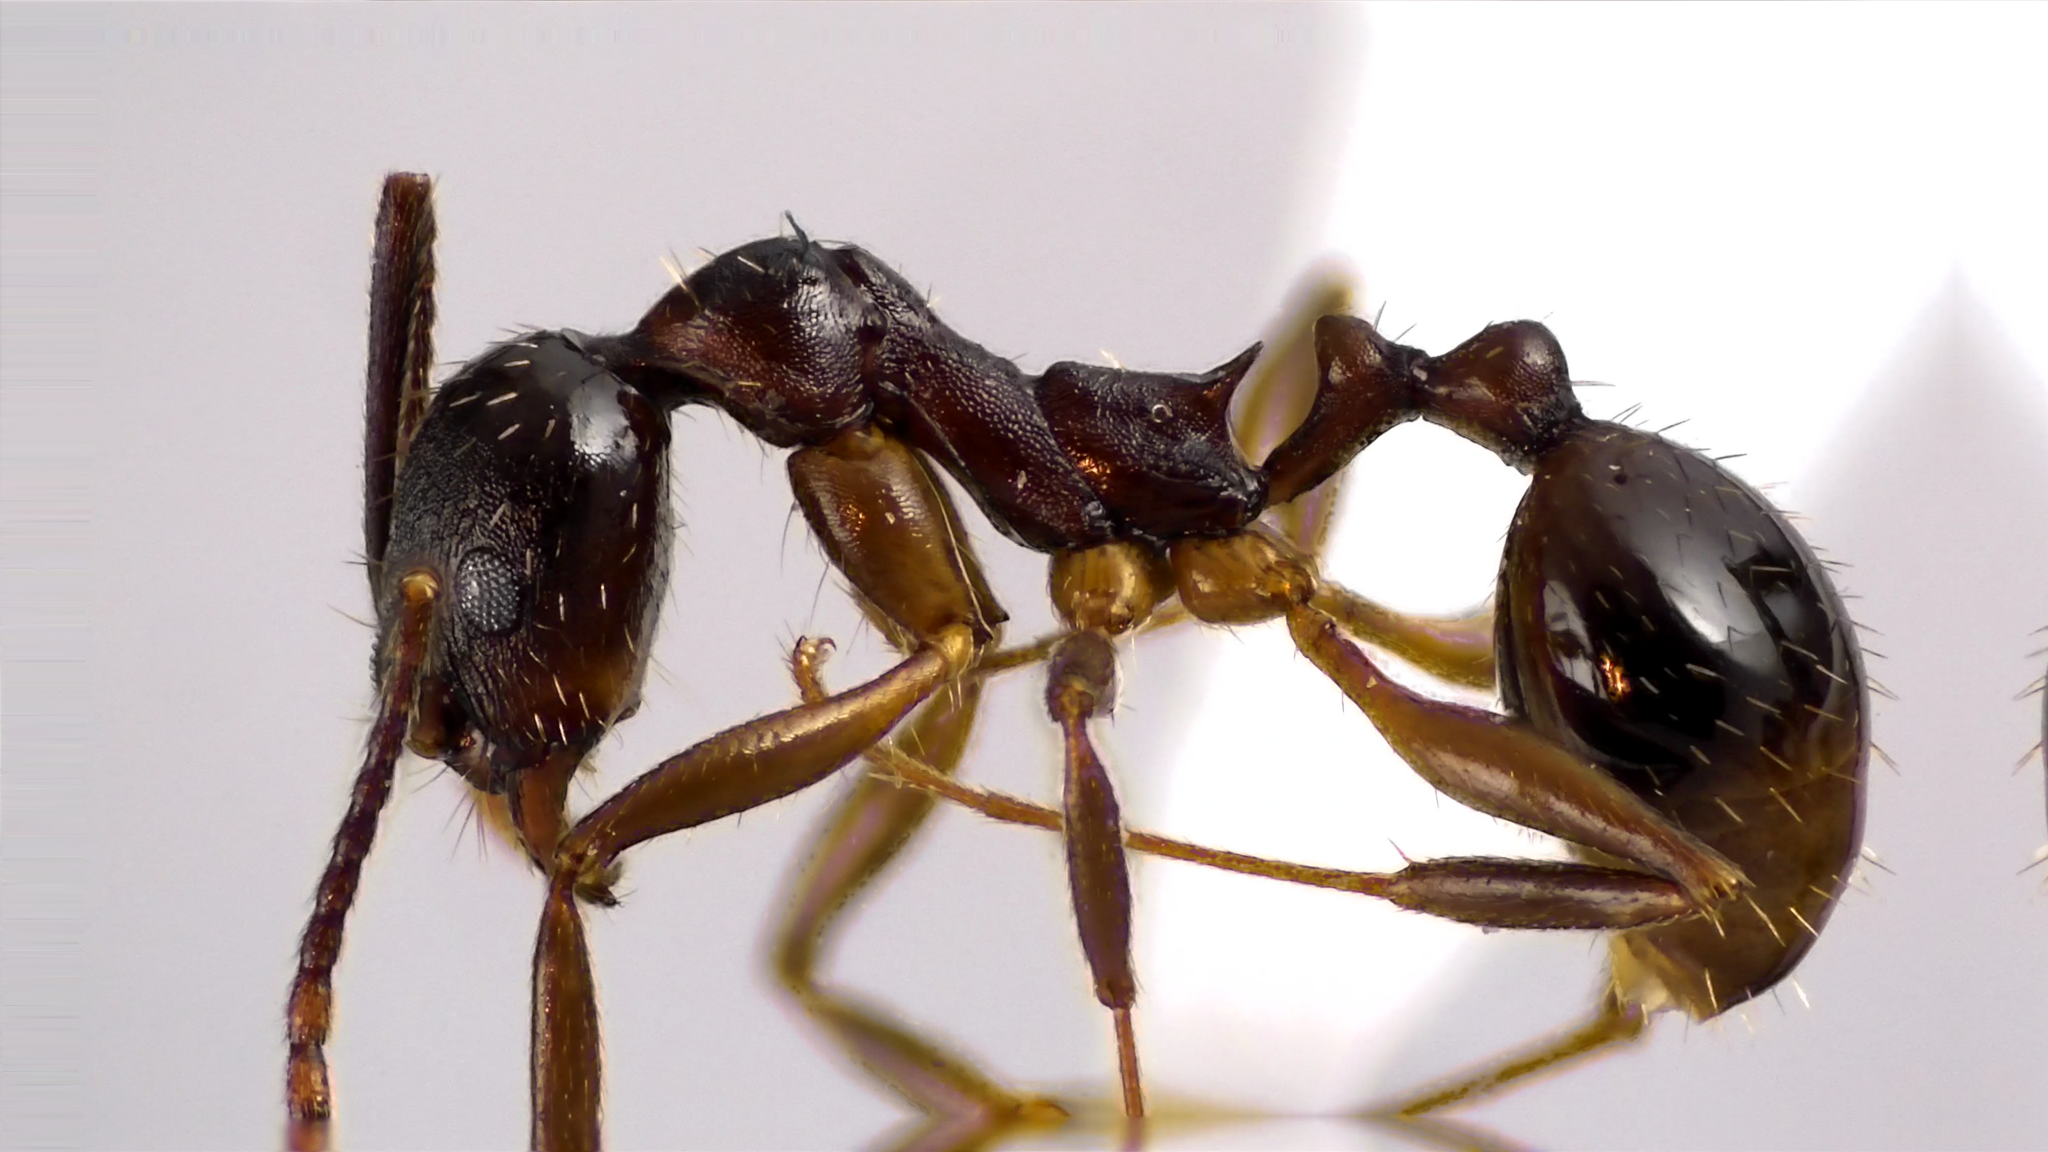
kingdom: Animalia
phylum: Arthropoda
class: Insecta
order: Hymenoptera
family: Formicidae
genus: Aphaenogaster
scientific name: Aphaenogaster picea
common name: Pitch-black collared ant
